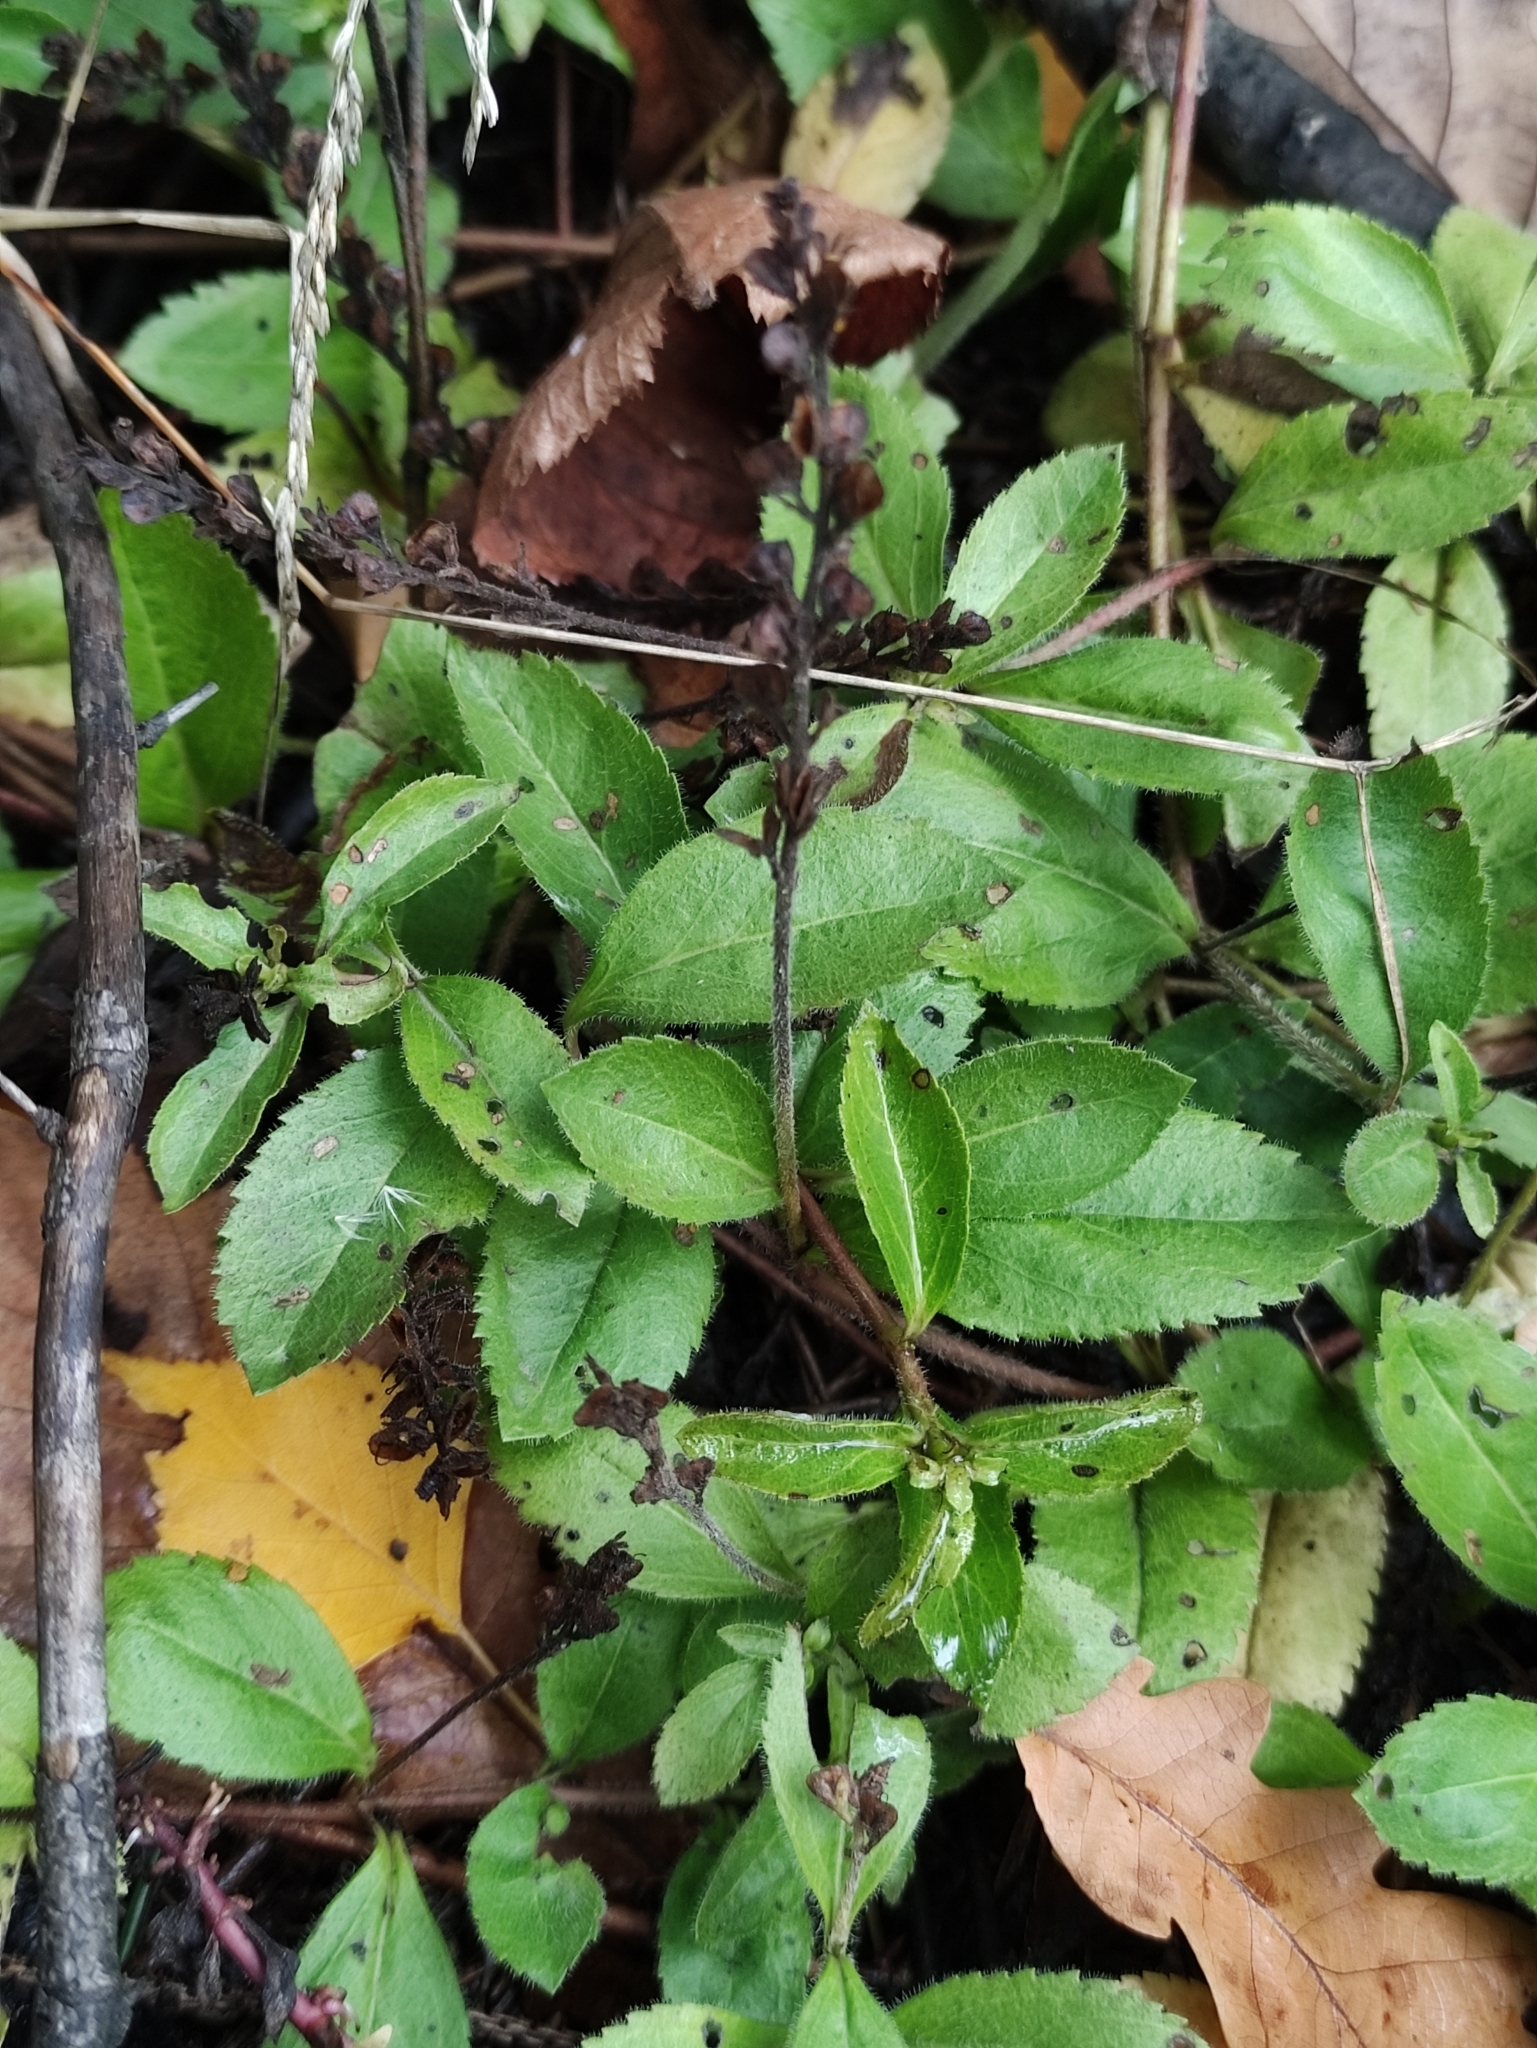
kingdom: Plantae
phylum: Tracheophyta
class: Magnoliopsida
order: Lamiales
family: Plantaginaceae
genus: Veronica
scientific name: Veronica officinalis
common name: Common speedwell
